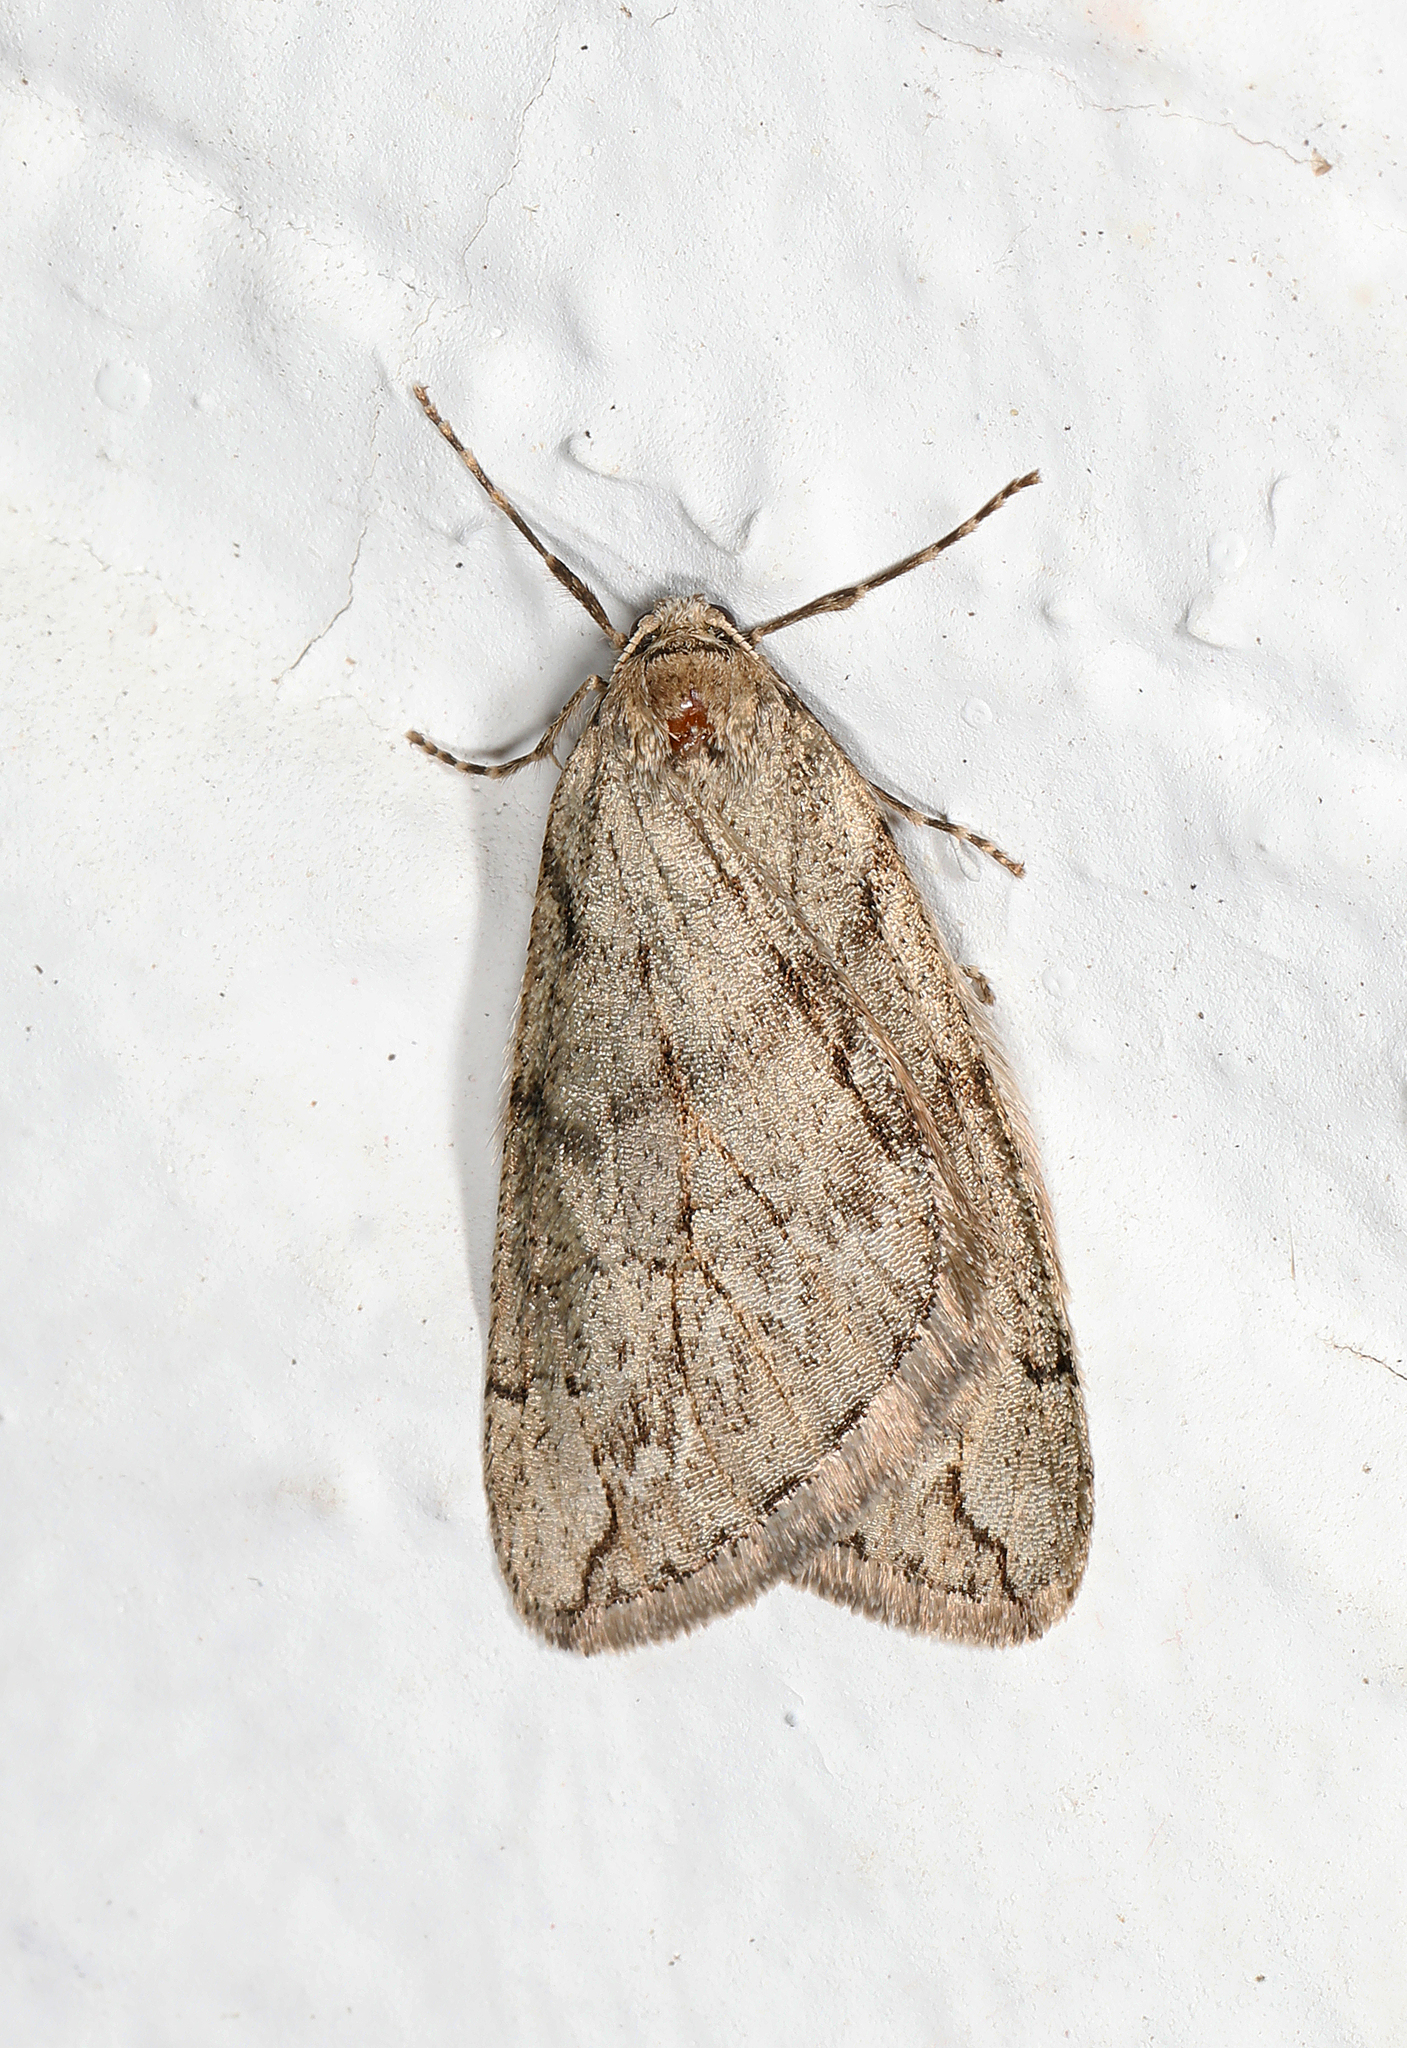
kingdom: Animalia
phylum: Arthropoda
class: Insecta
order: Lepidoptera
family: Geometridae
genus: Paleacrita
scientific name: Paleacrita vernata
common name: Spring cankerworm
